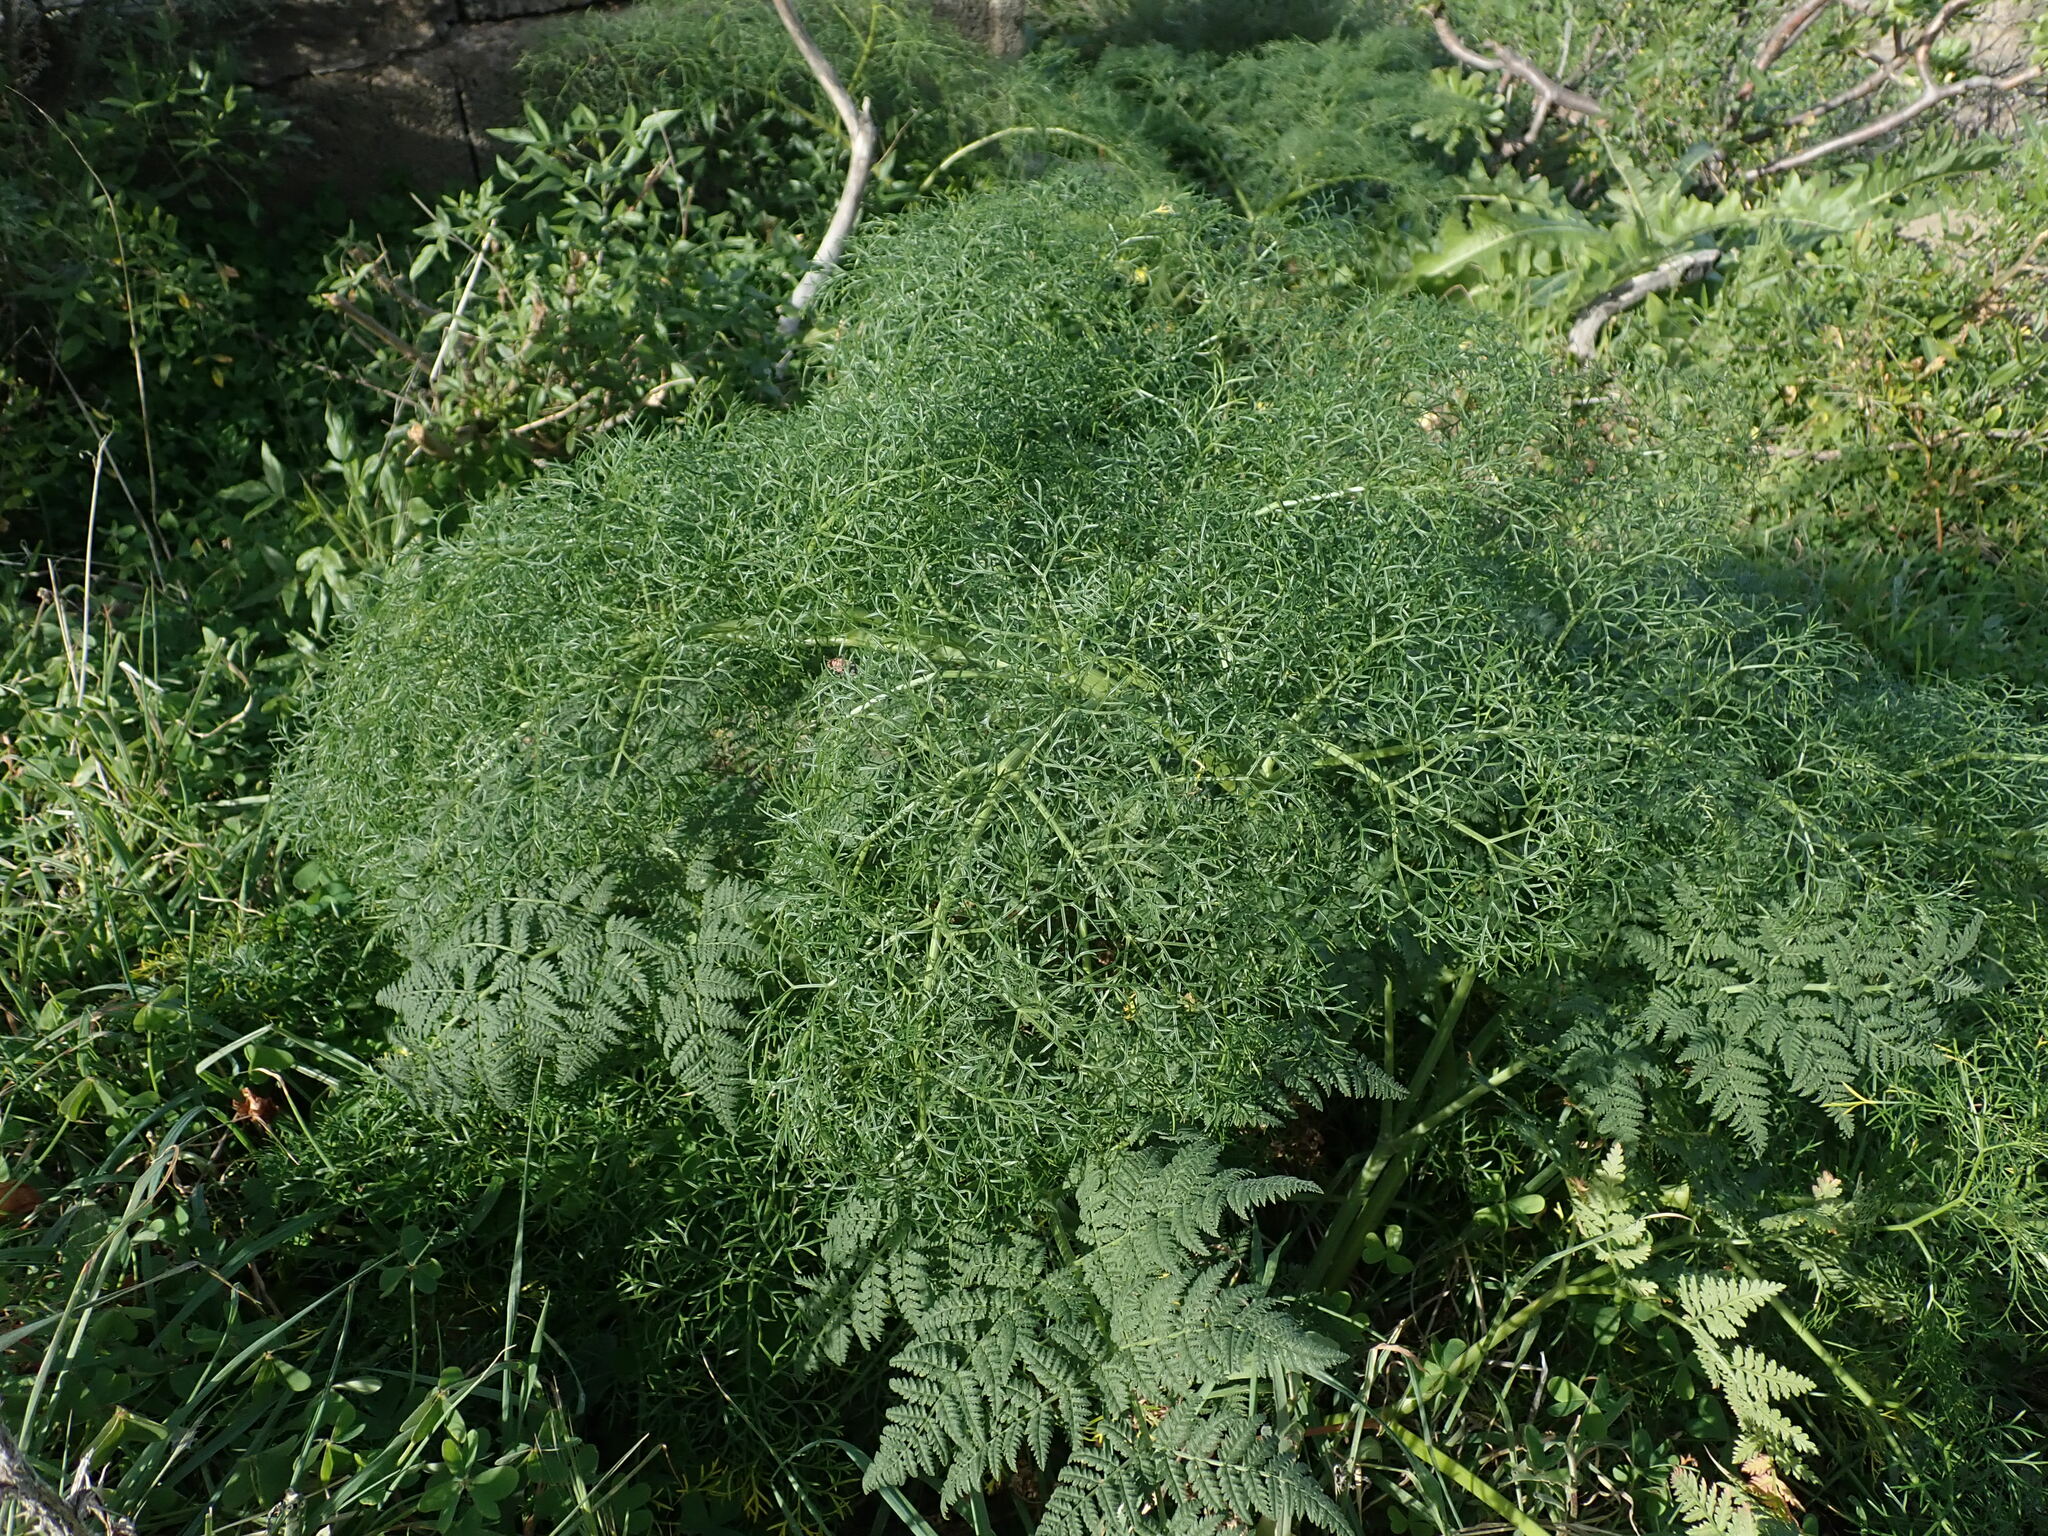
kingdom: Plantae
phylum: Tracheophyta
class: Magnoliopsida
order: Apiales
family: Apiaceae
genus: Ferula
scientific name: Ferula communis
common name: Giant fennel
